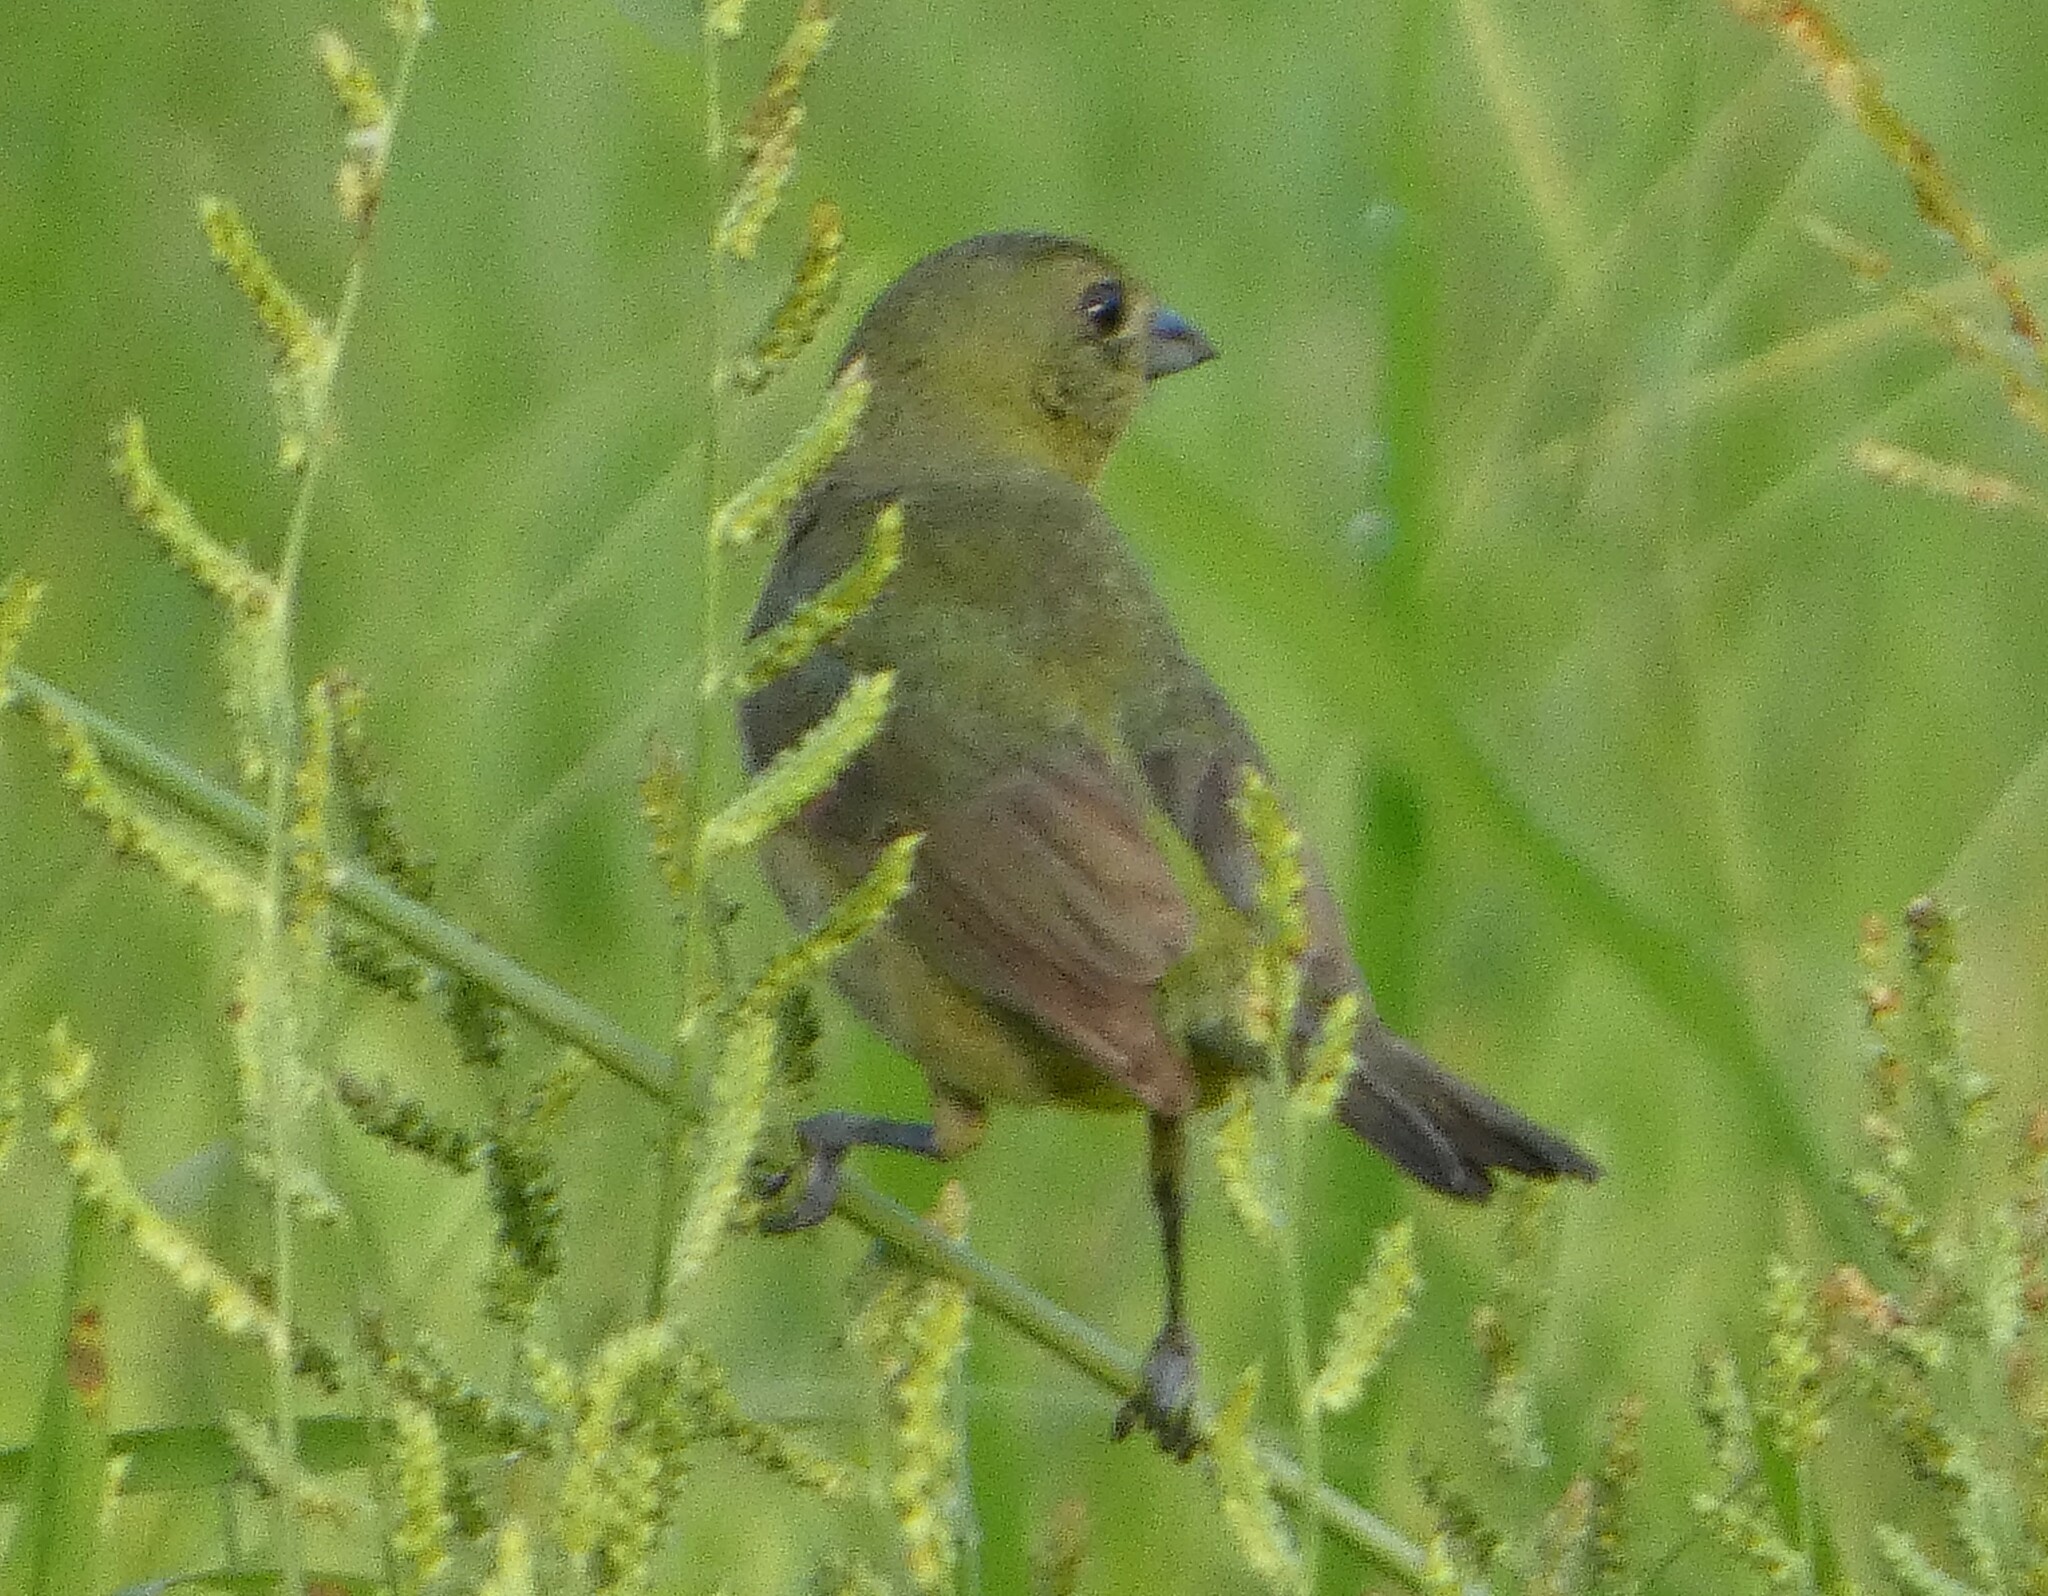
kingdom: Animalia
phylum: Chordata
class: Aves
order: Passeriformes
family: Cardinalidae
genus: Passerina
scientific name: Passerina ciris
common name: Painted bunting
